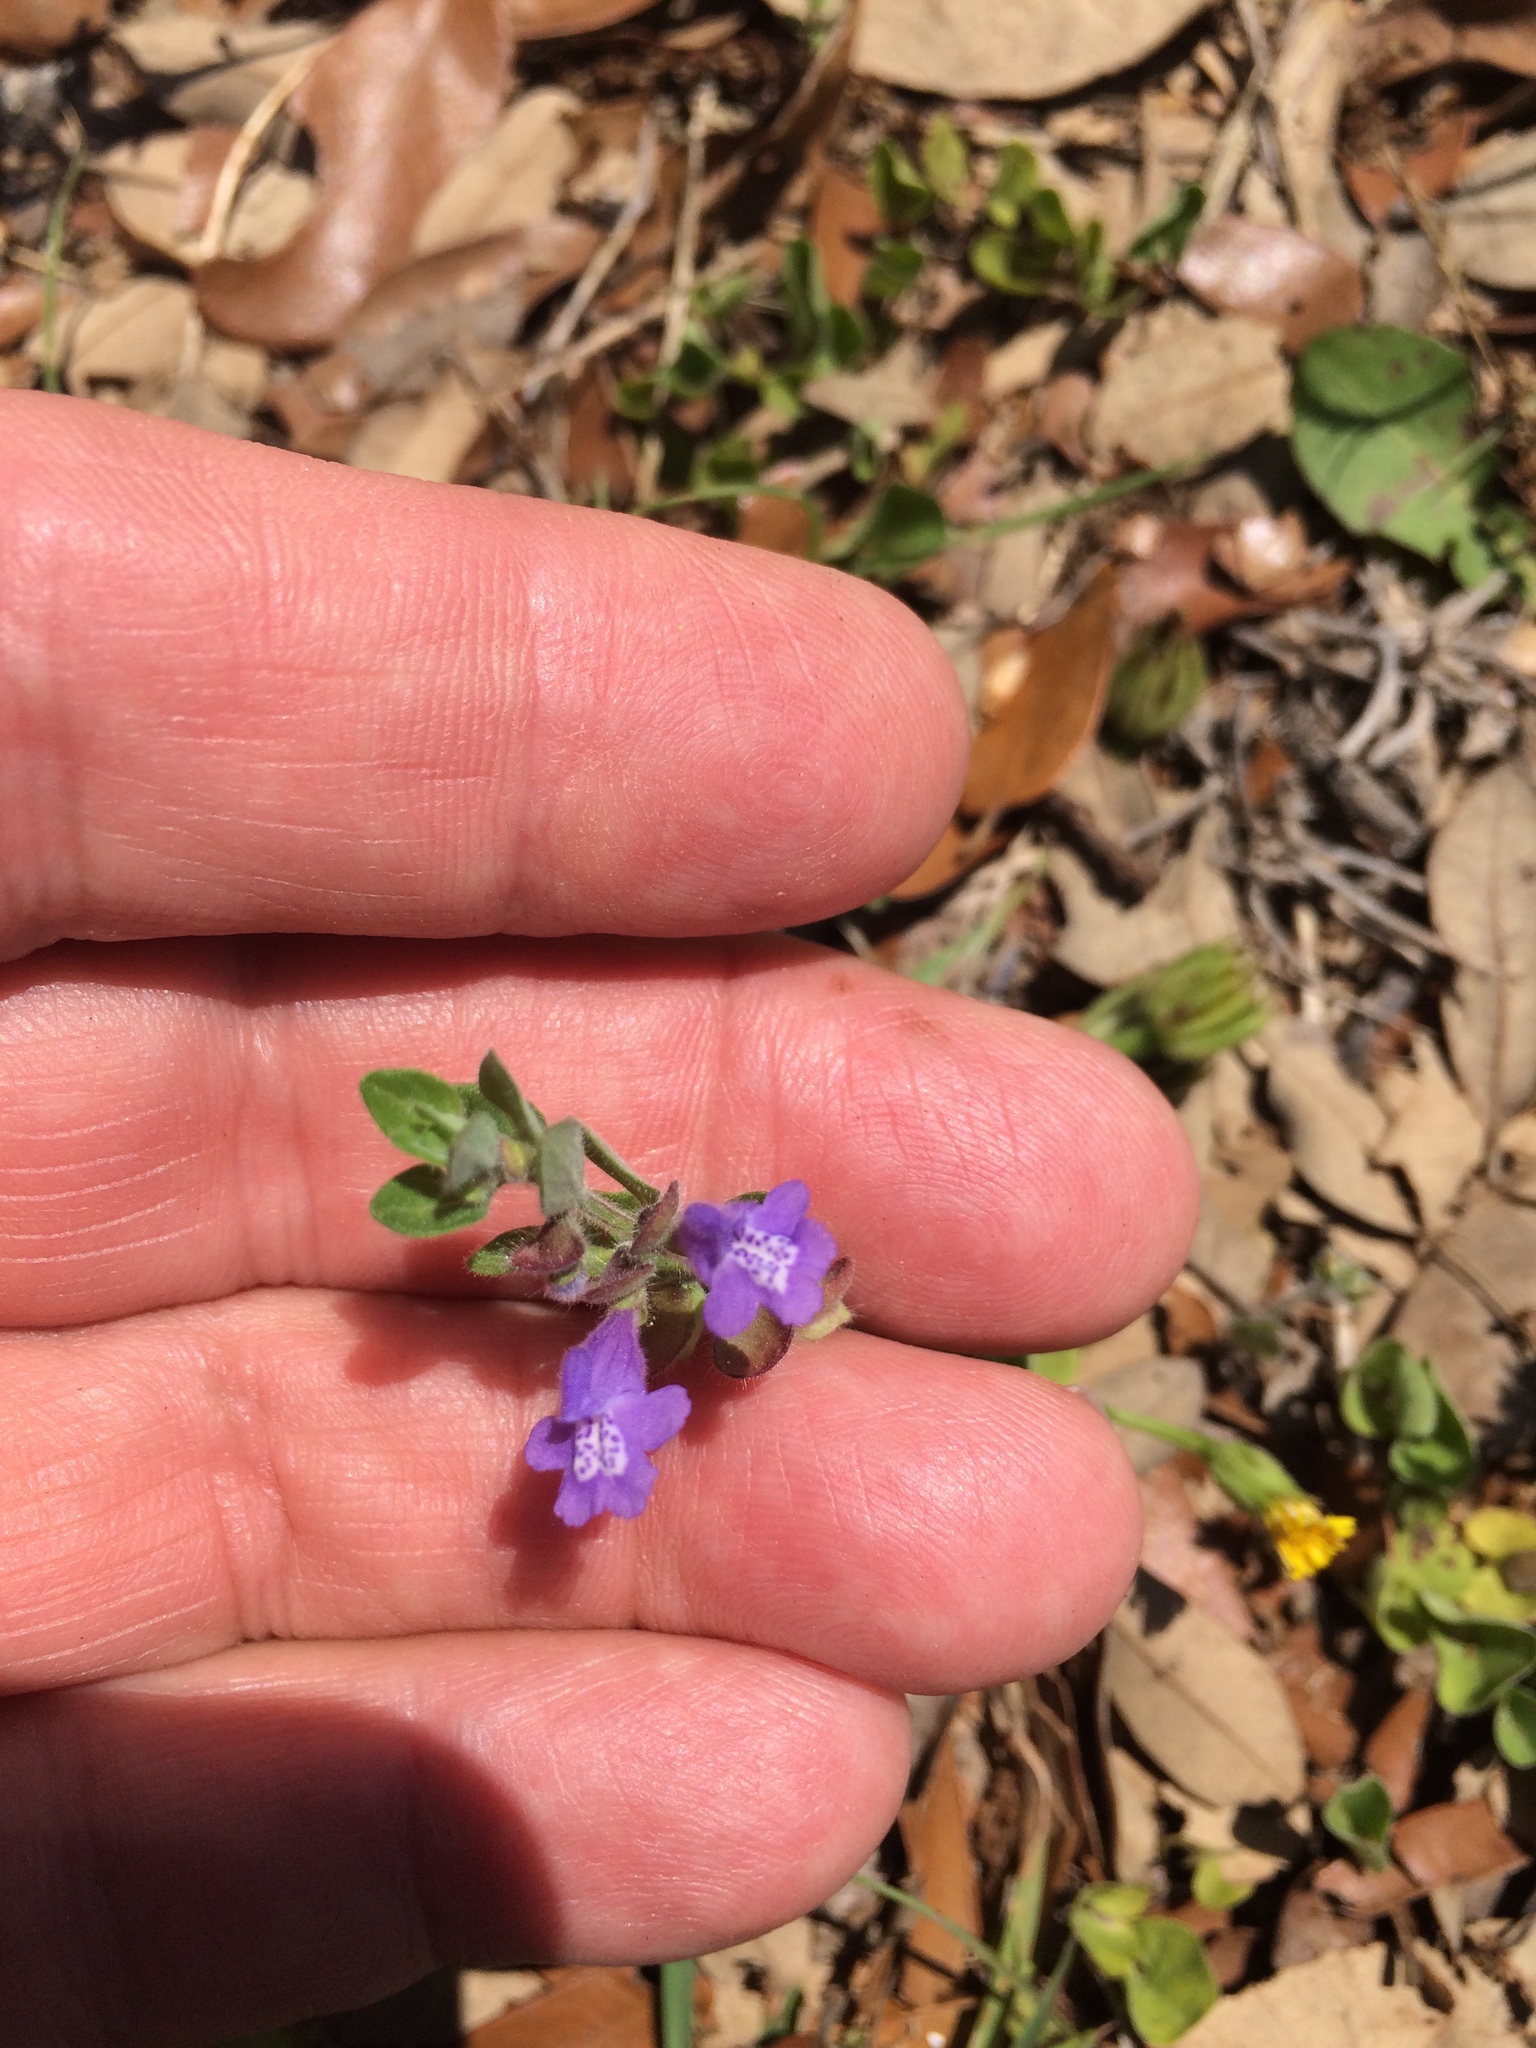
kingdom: Plantae
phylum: Tracheophyta
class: Magnoliopsida
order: Lamiales
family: Lamiaceae
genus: Scutellaria
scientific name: Scutellaria drummondii
